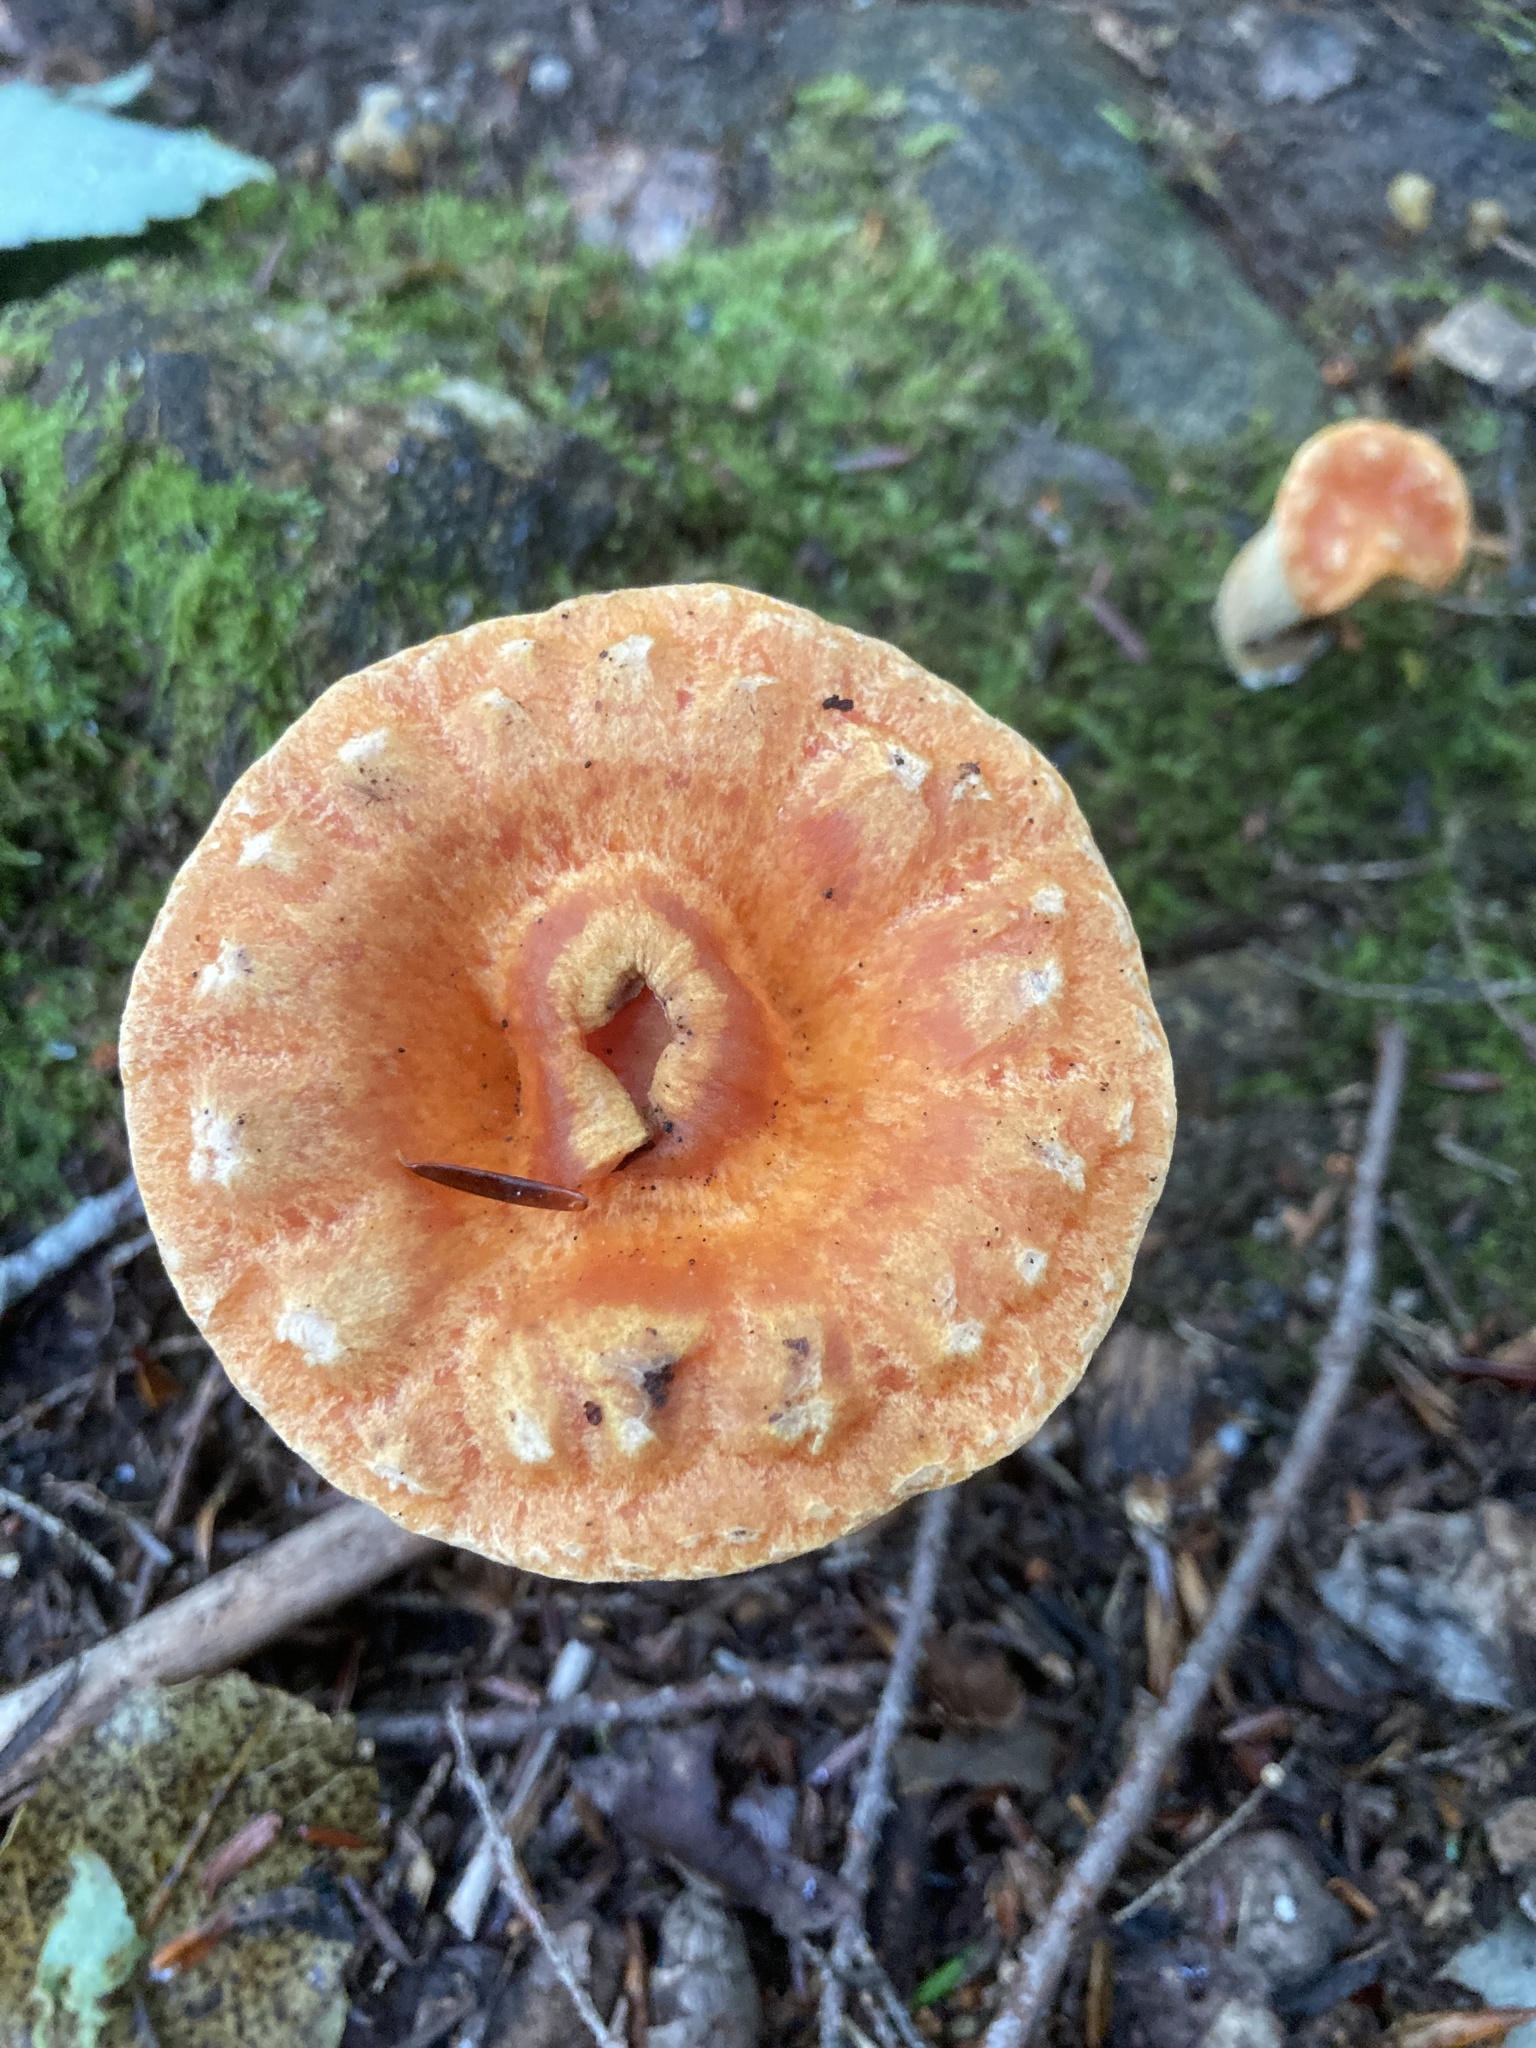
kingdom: Fungi
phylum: Basidiomycota
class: Agaricomycetes
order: Gomphales
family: Gomphaceae
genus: Turbinellus
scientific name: Turbinellus floccosus
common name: Scaly chanterelle
